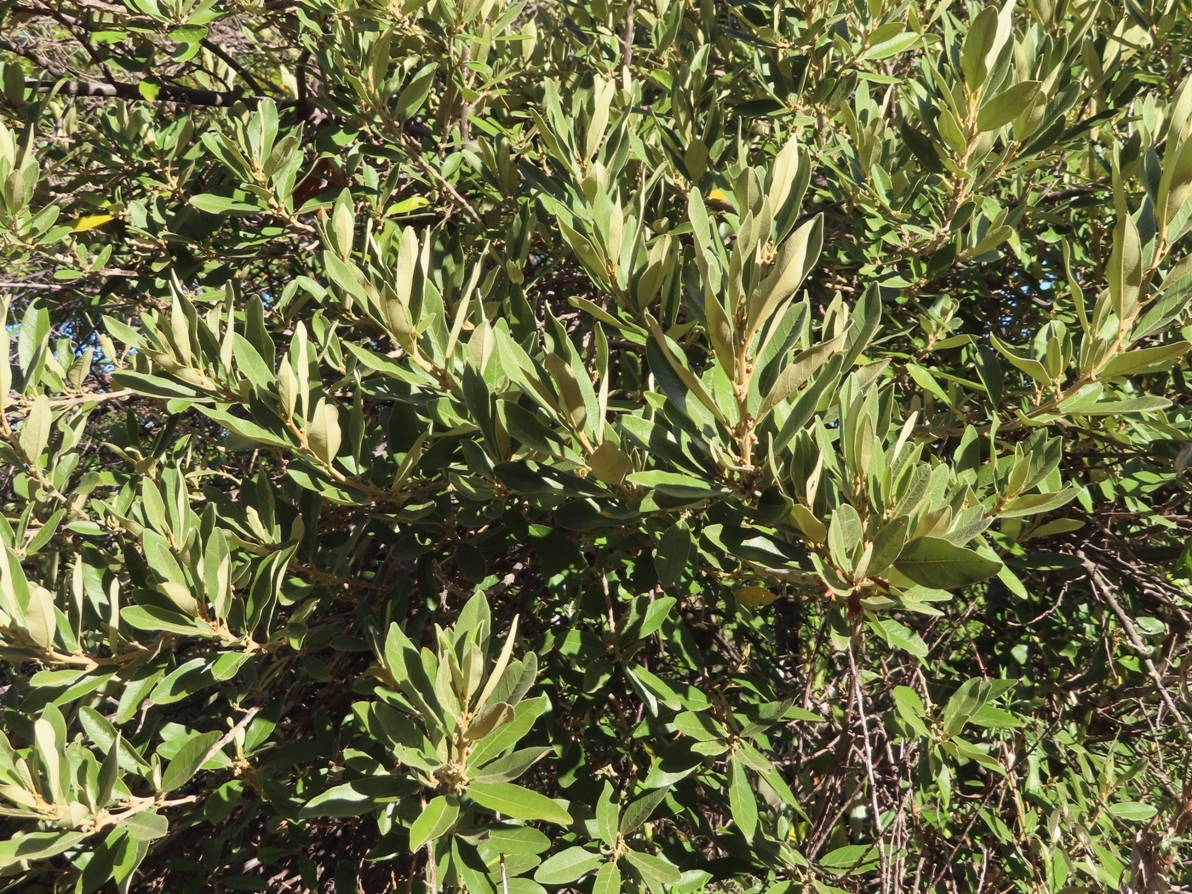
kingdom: Plantae
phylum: Tracheophyta
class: Magnoliopsida
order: Malpighiales
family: Achariaceae
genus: Kiggelaria
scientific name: Kiggelaria africana
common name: Wild peach
